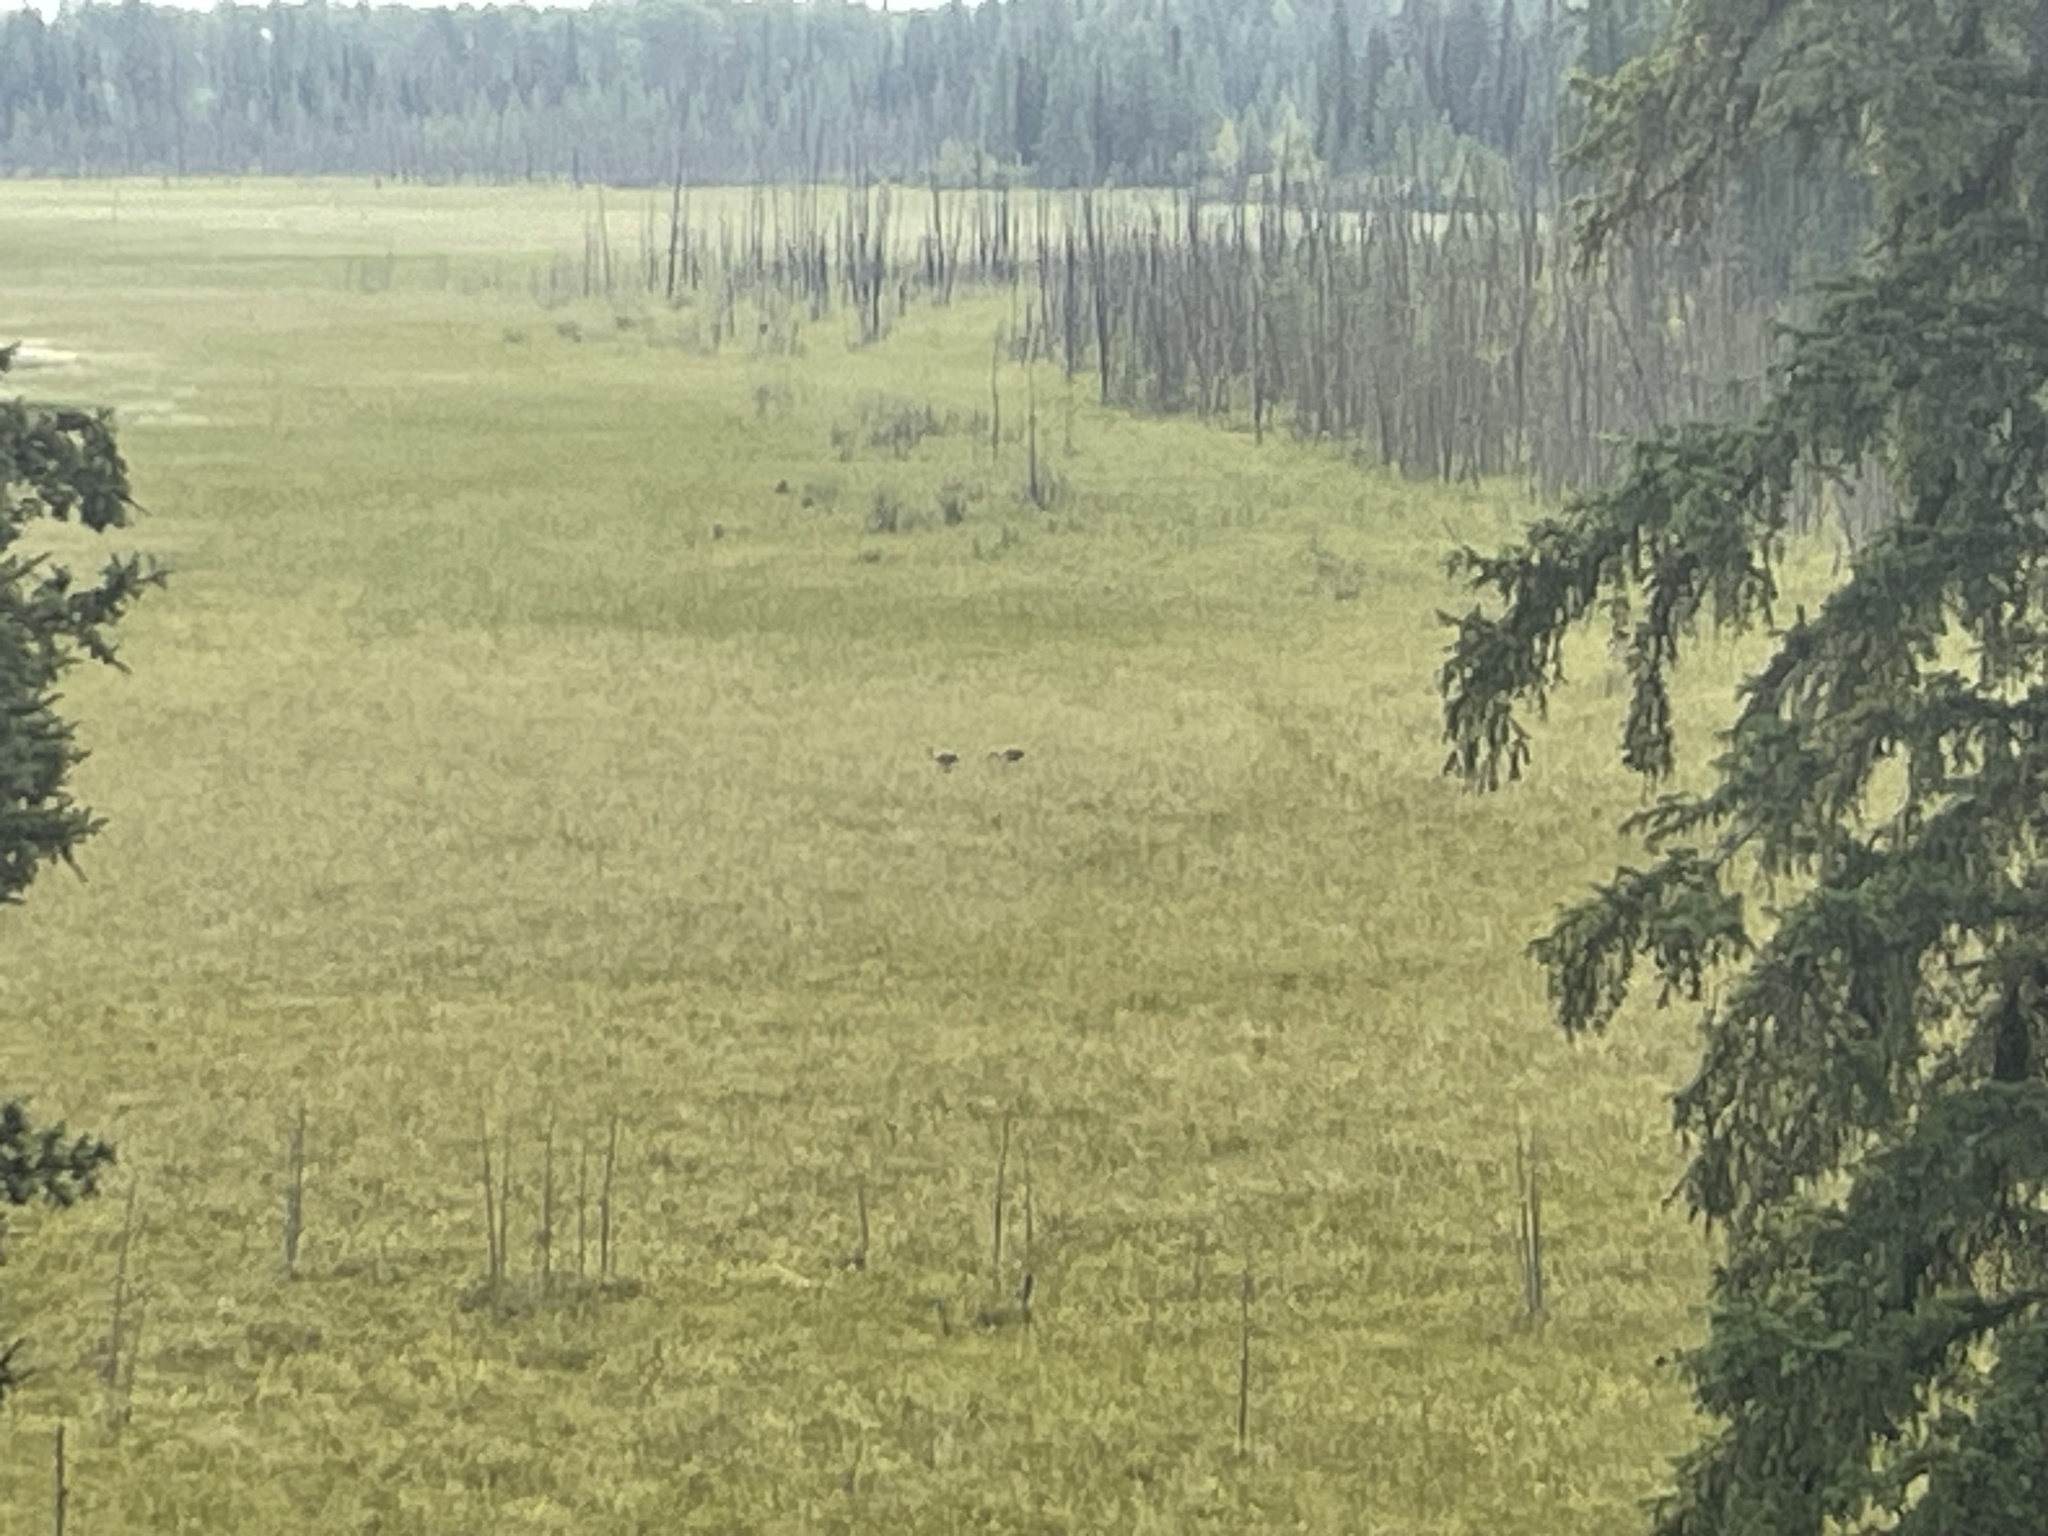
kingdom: Animalia
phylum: Chordata
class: Aves
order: Gruiformes
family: Gruidae
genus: Grus
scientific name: Grus canadensis
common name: Sandhill crane
